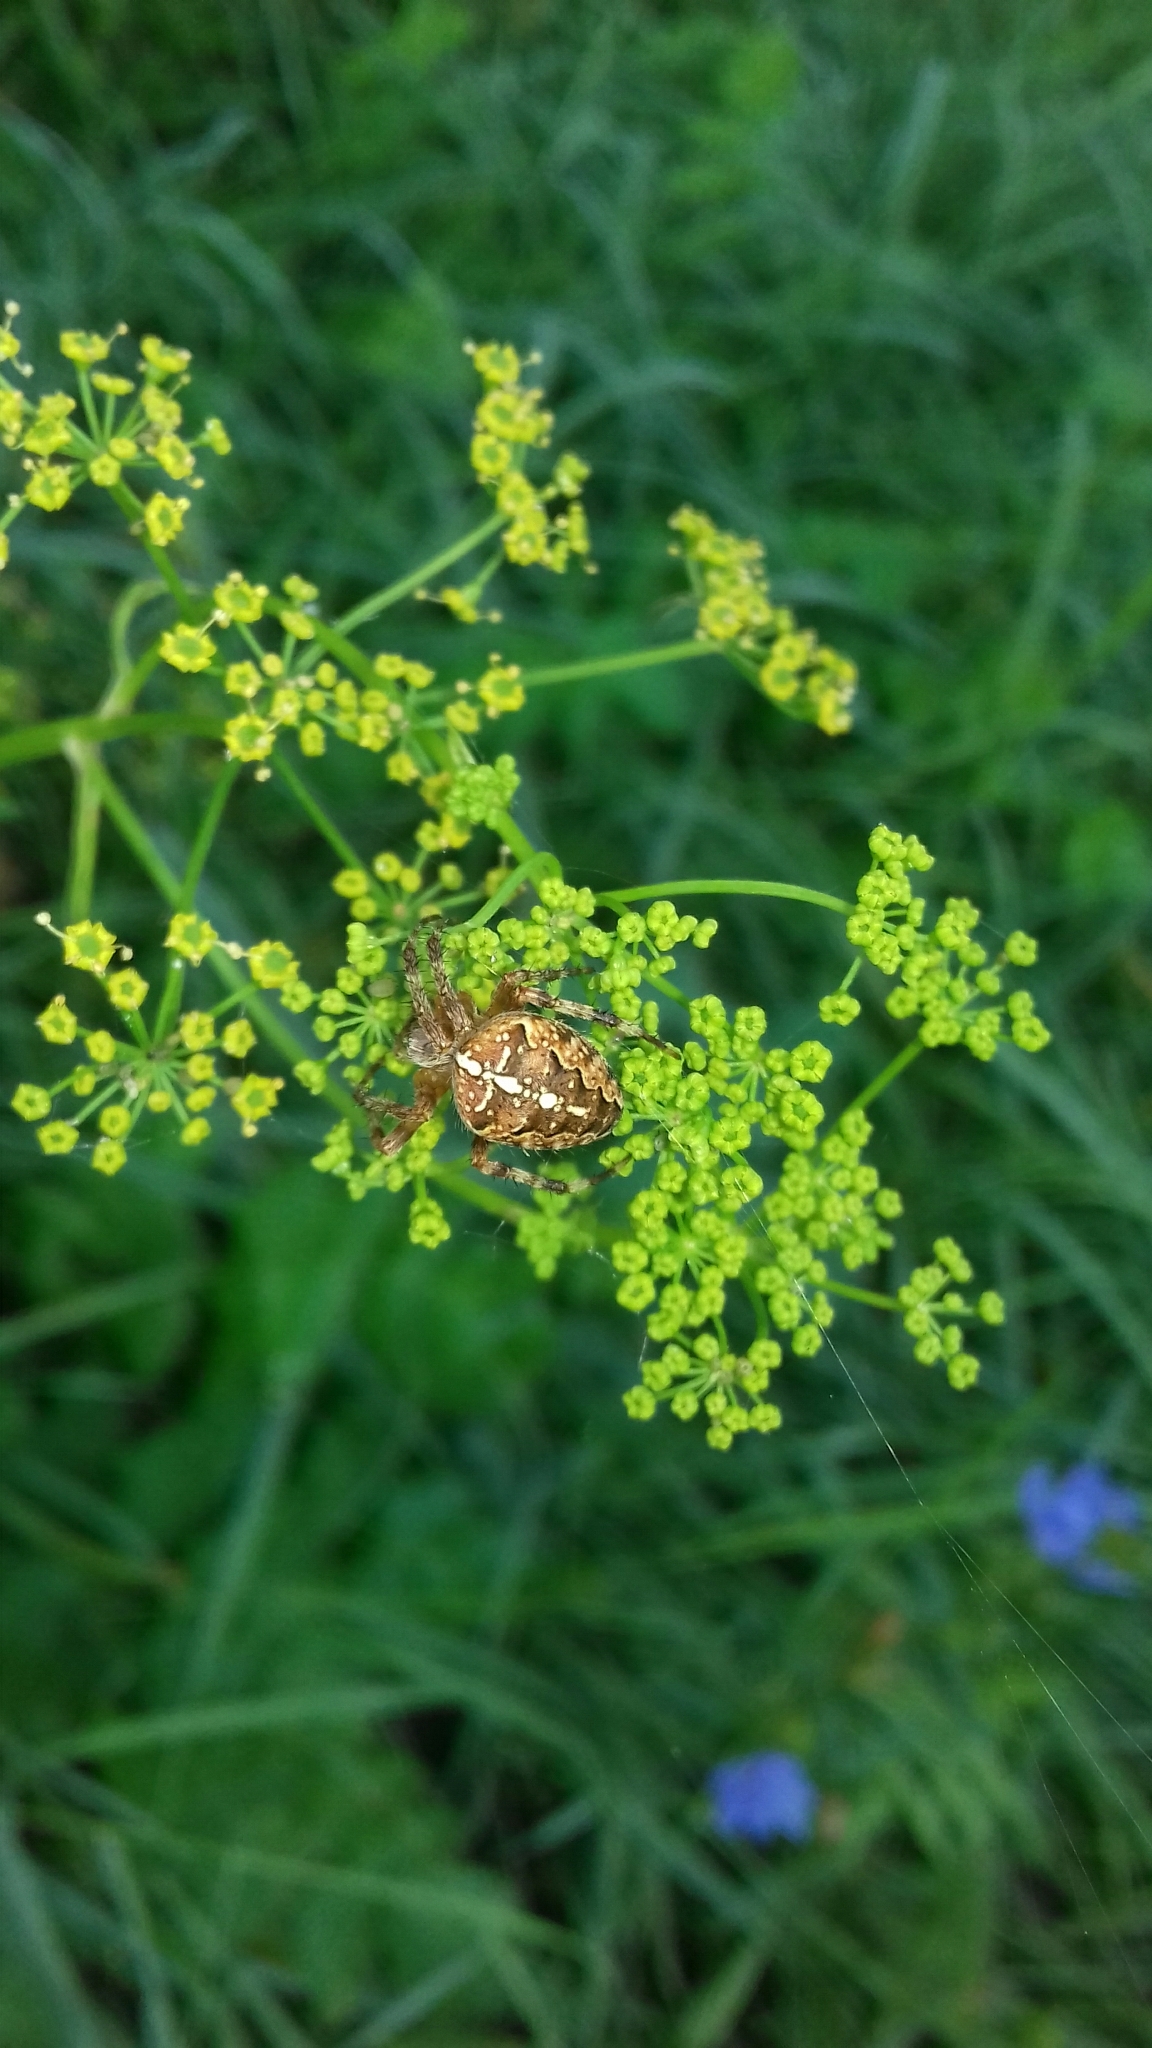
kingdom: Animalia
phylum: Arthropoda
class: Arachnida
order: Araneae
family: Araneidae
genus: Araneus
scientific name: Araneus diadematus
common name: Cross orbweaver
